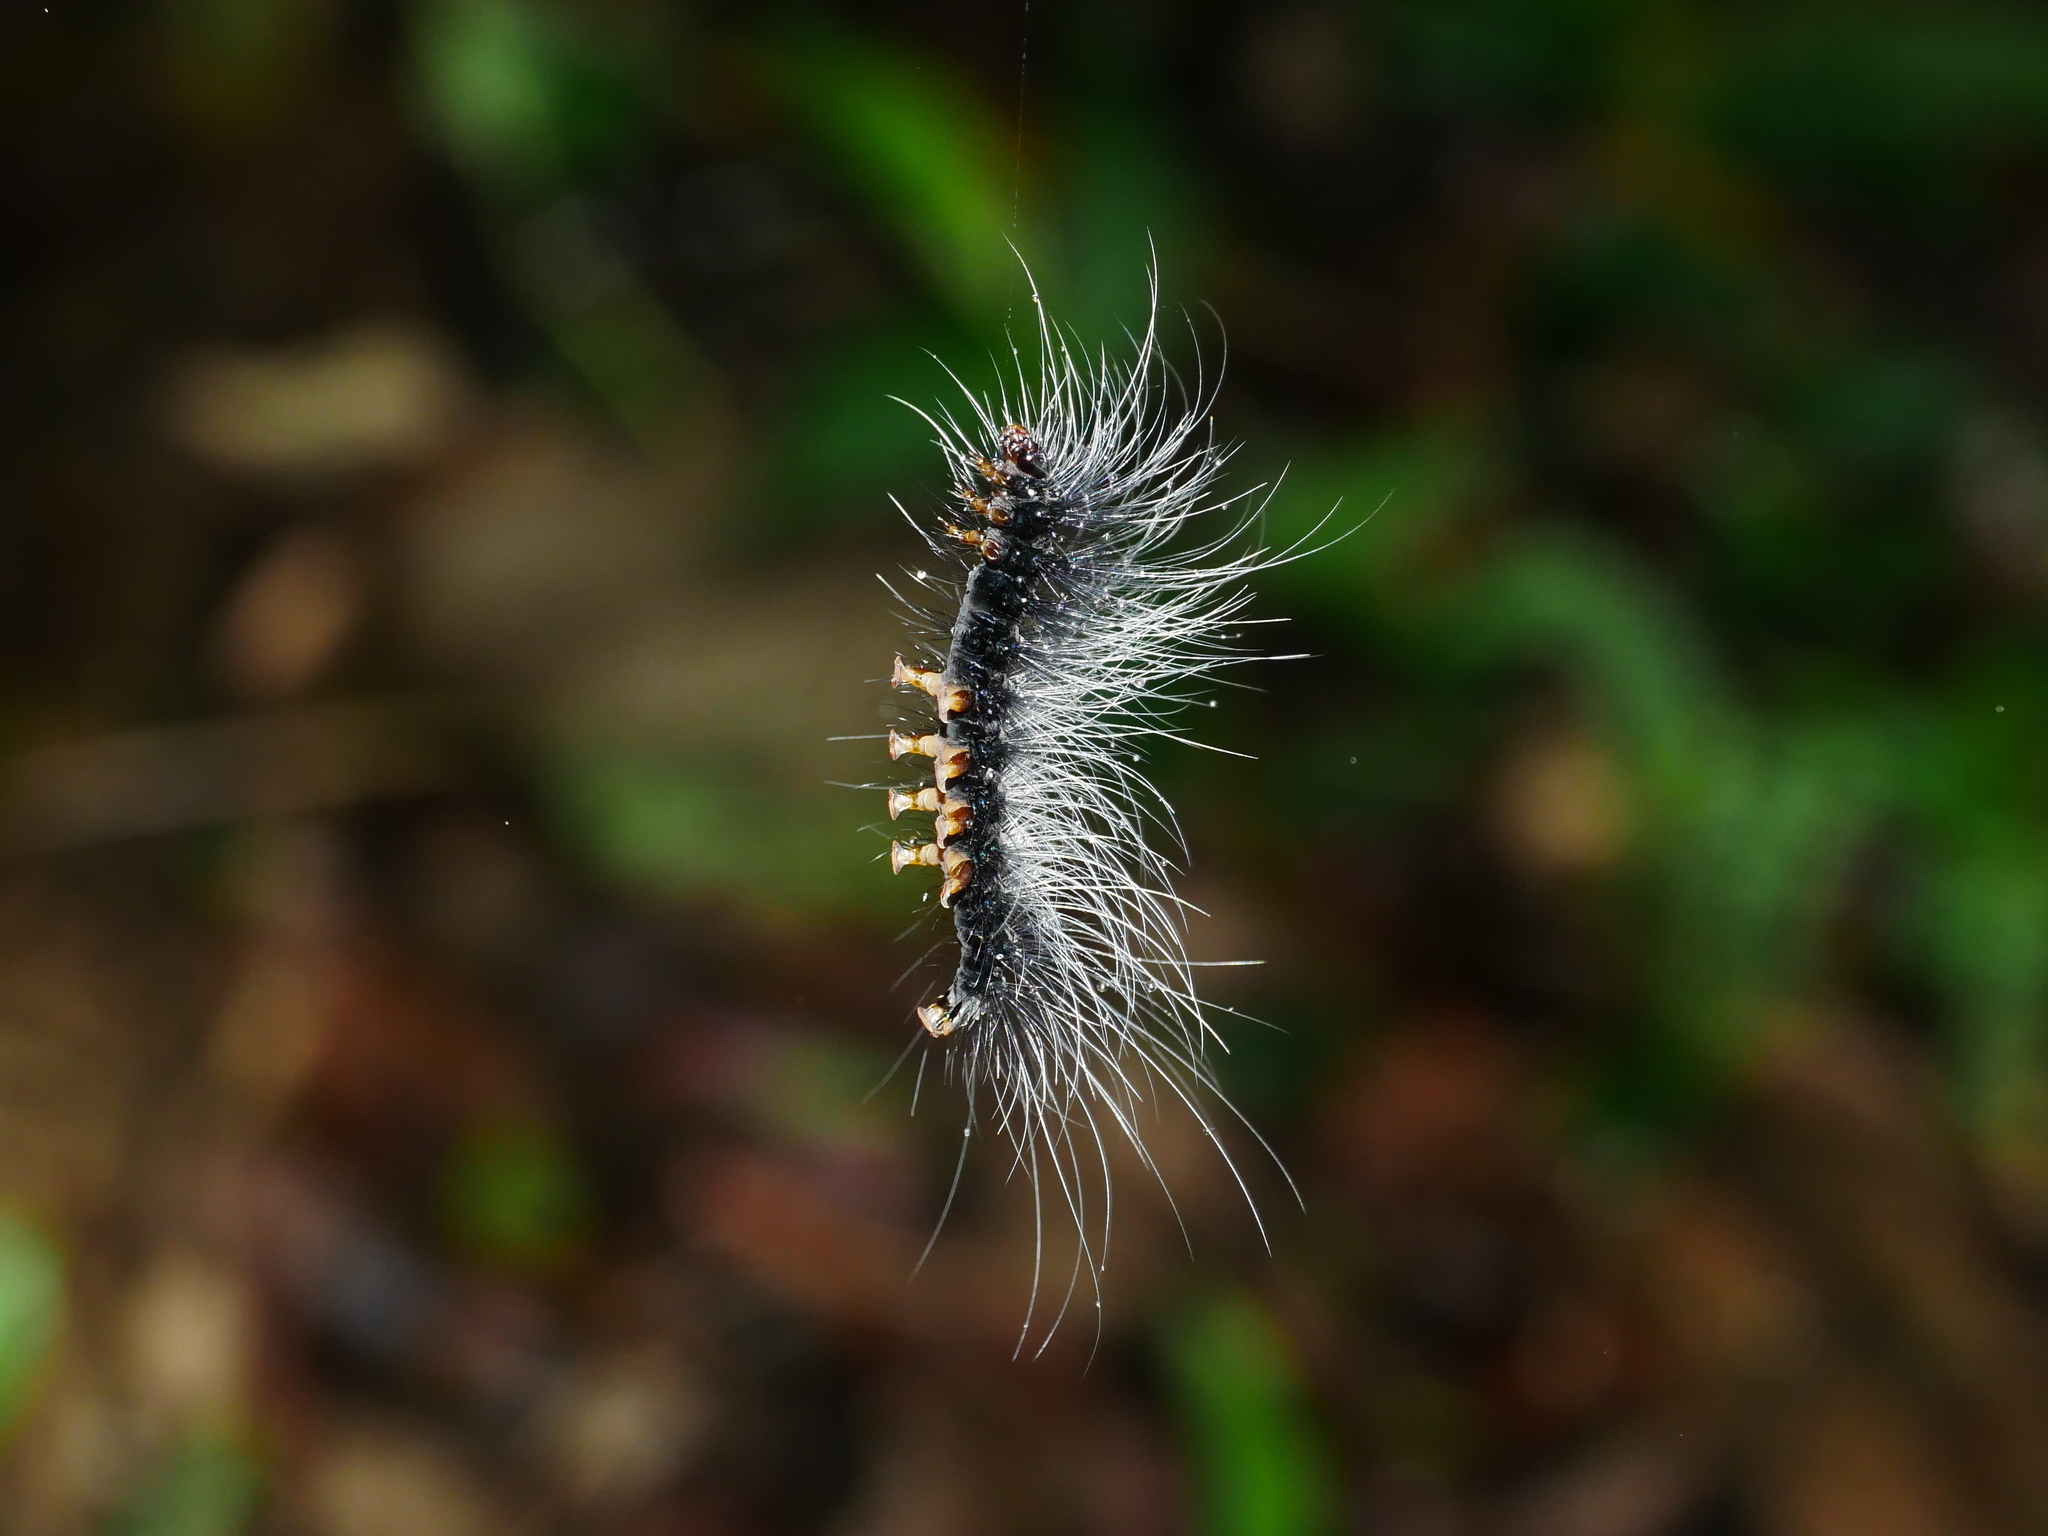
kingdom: Animalia
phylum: Arthropoda
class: Insecta
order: Lepidoptera
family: Erebidae
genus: Macrobrochis
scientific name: Macrobrochis gigas
